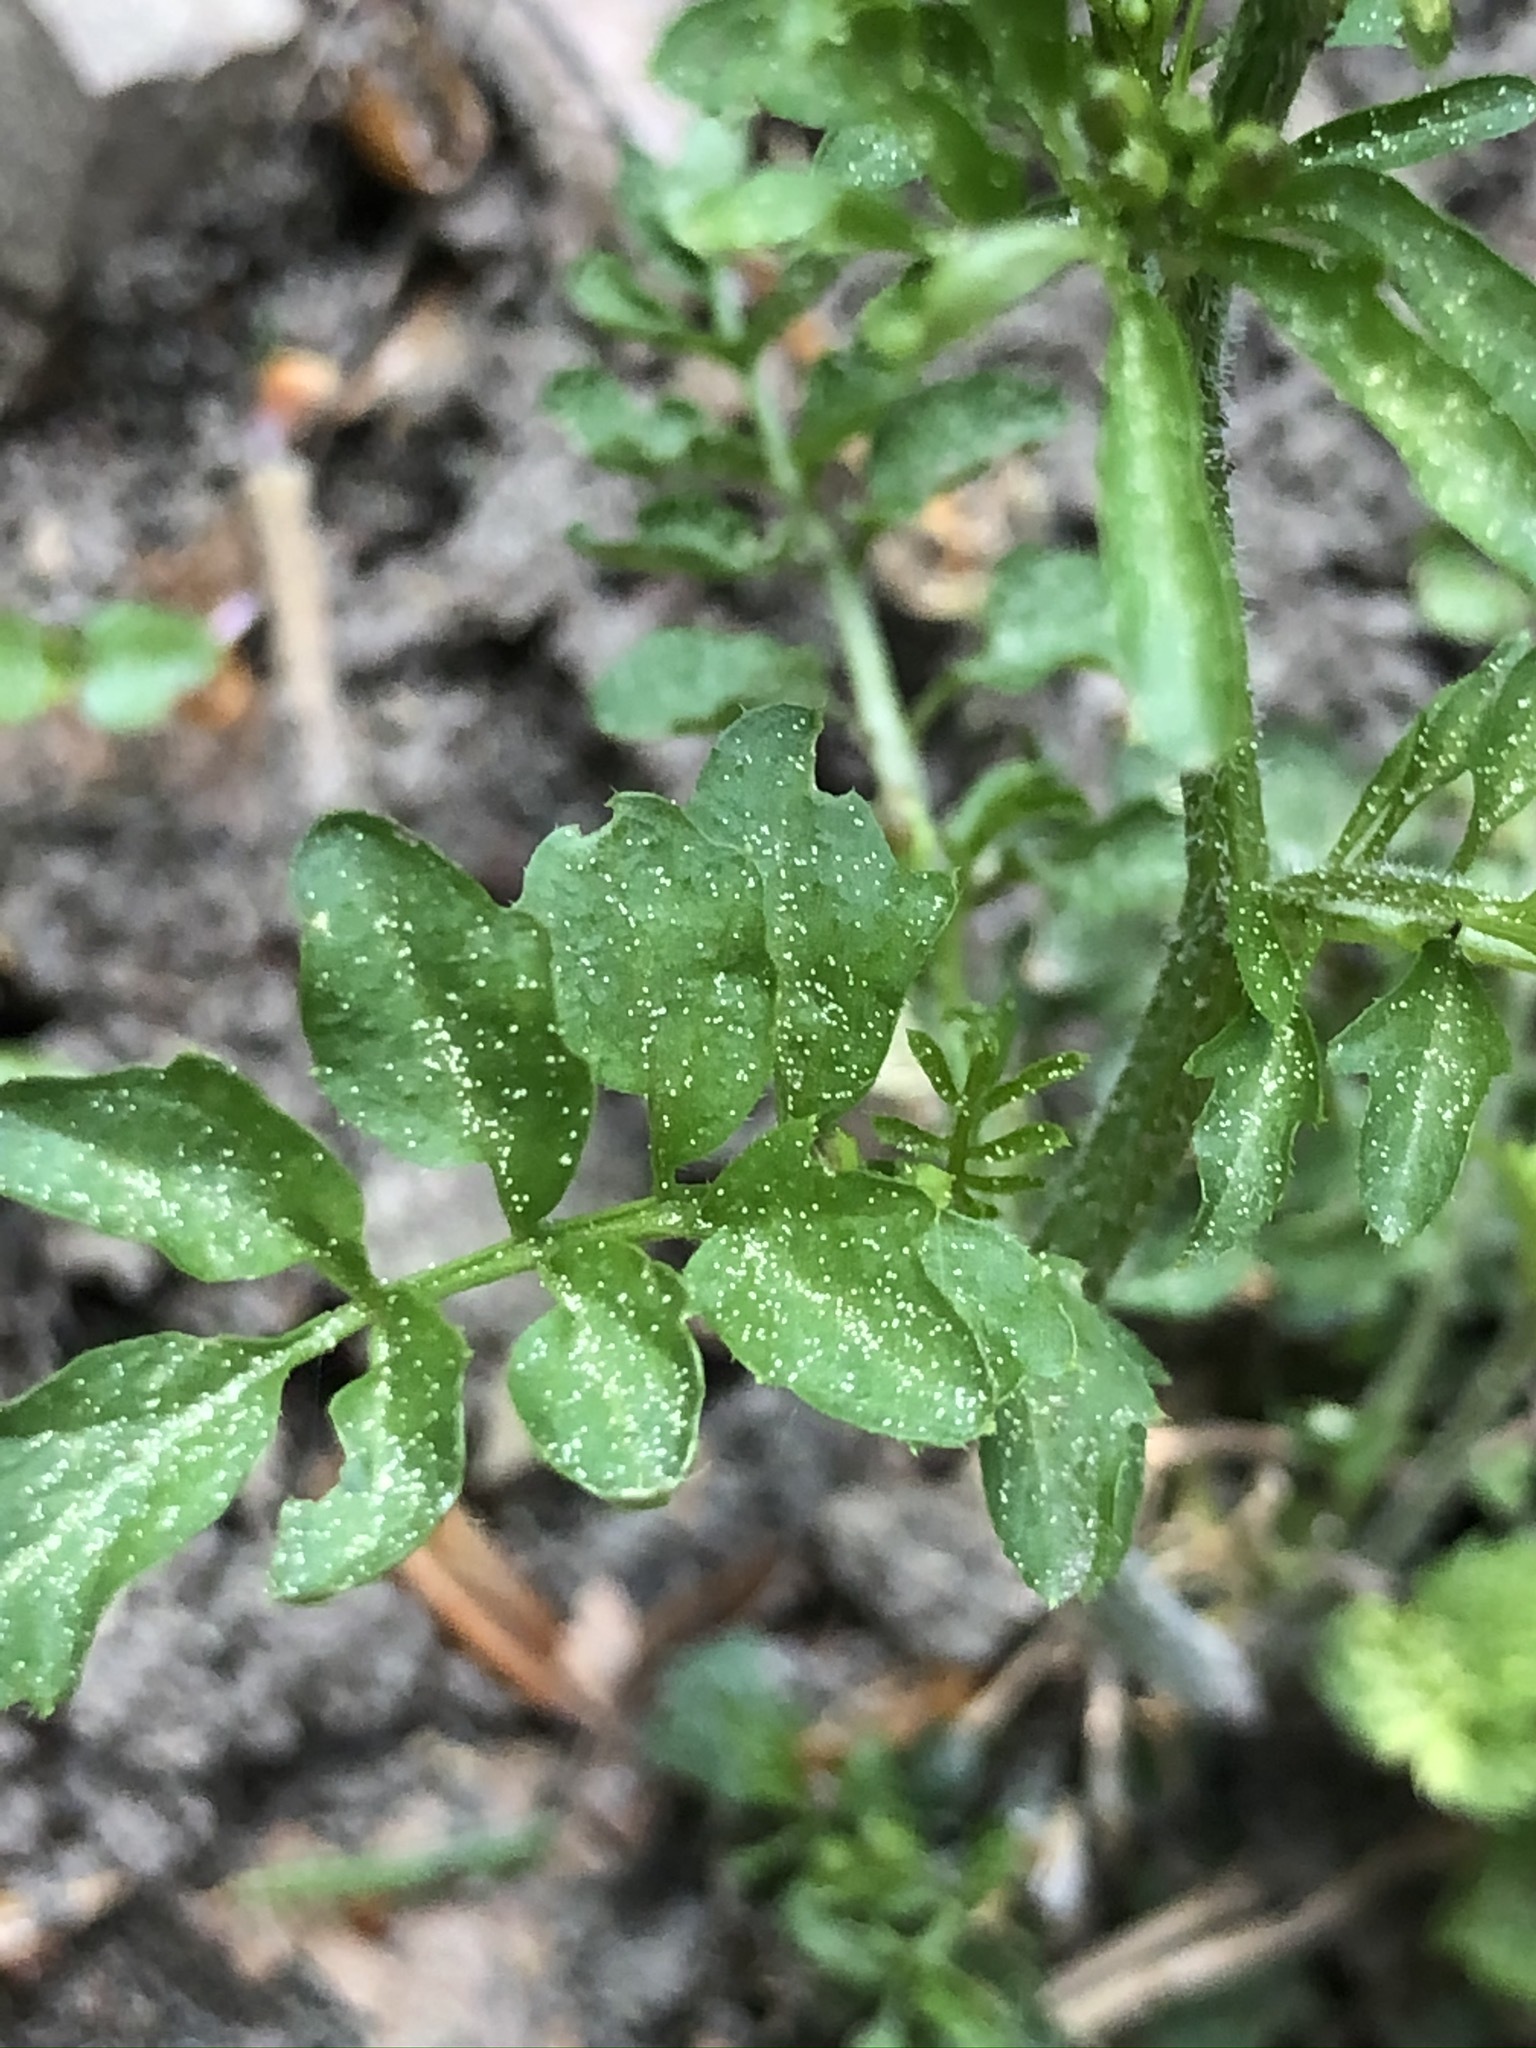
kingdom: Plantae
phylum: Tracheophyta
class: Magnoliopsida
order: Brassicales
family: Brassicaceae
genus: Cardamine
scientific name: Cardamine flexuosa
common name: Woodland bittercress
